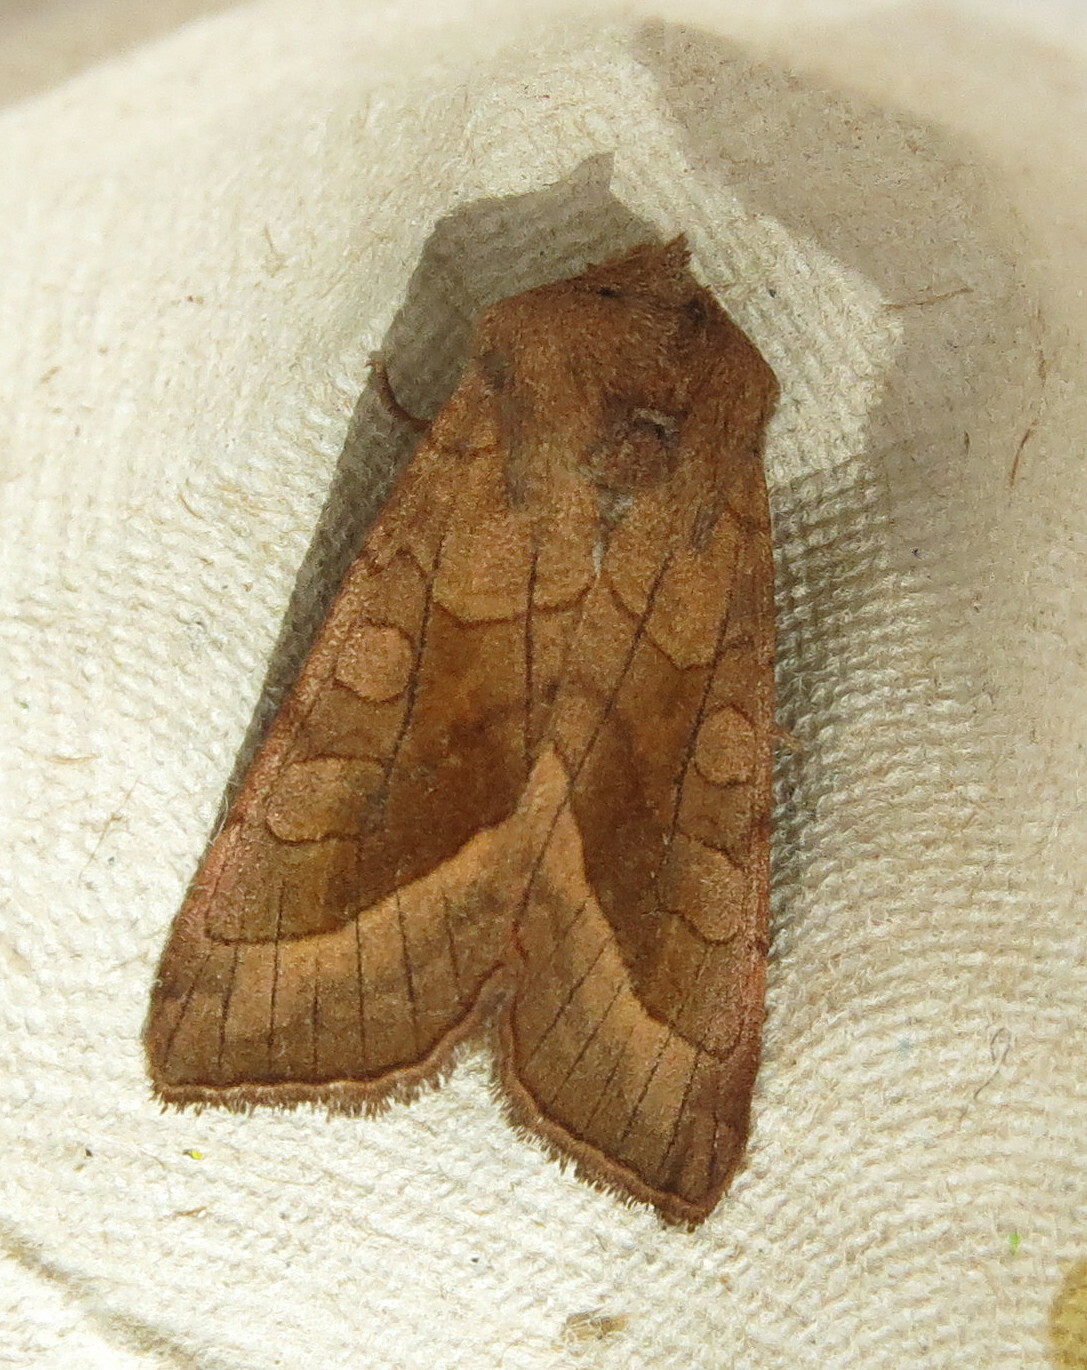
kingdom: Animalia
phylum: Arthropoda
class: Insecta
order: Lepidoptera
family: Noctuidae
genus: Hydraecia
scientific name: Hydraecia micacea
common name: Rosy rustic
